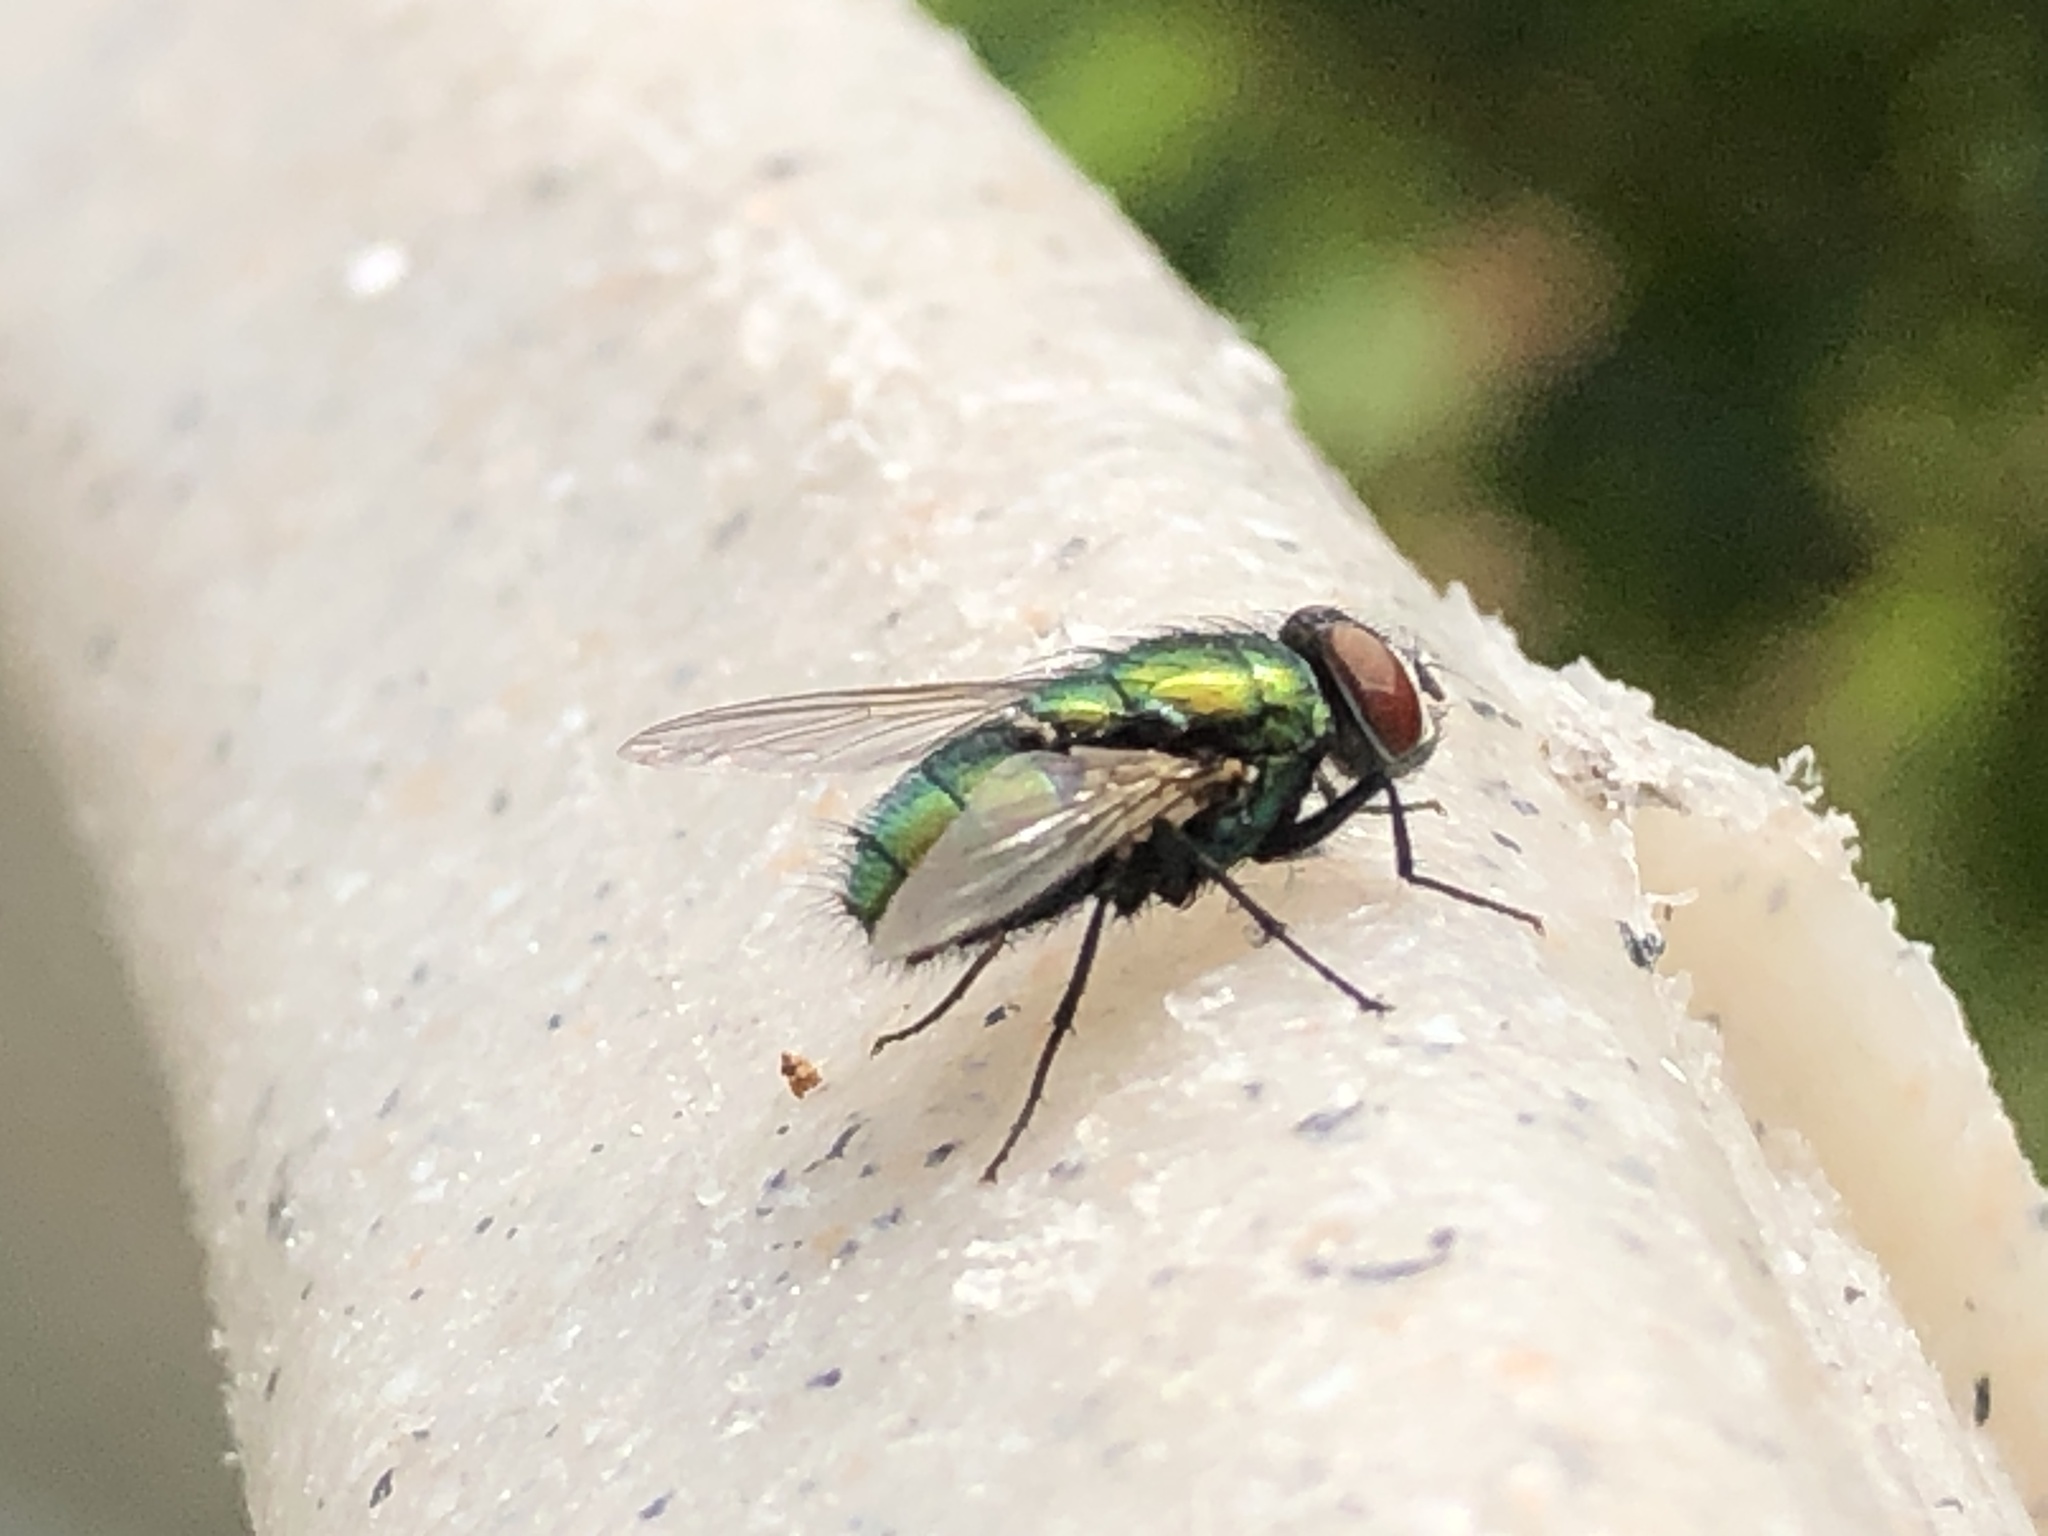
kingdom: Animalia
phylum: Arthropoda
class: Insecta
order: Diptera
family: Calliphoridae
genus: Lucilia
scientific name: Lucilia sericata
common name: Blow fly
